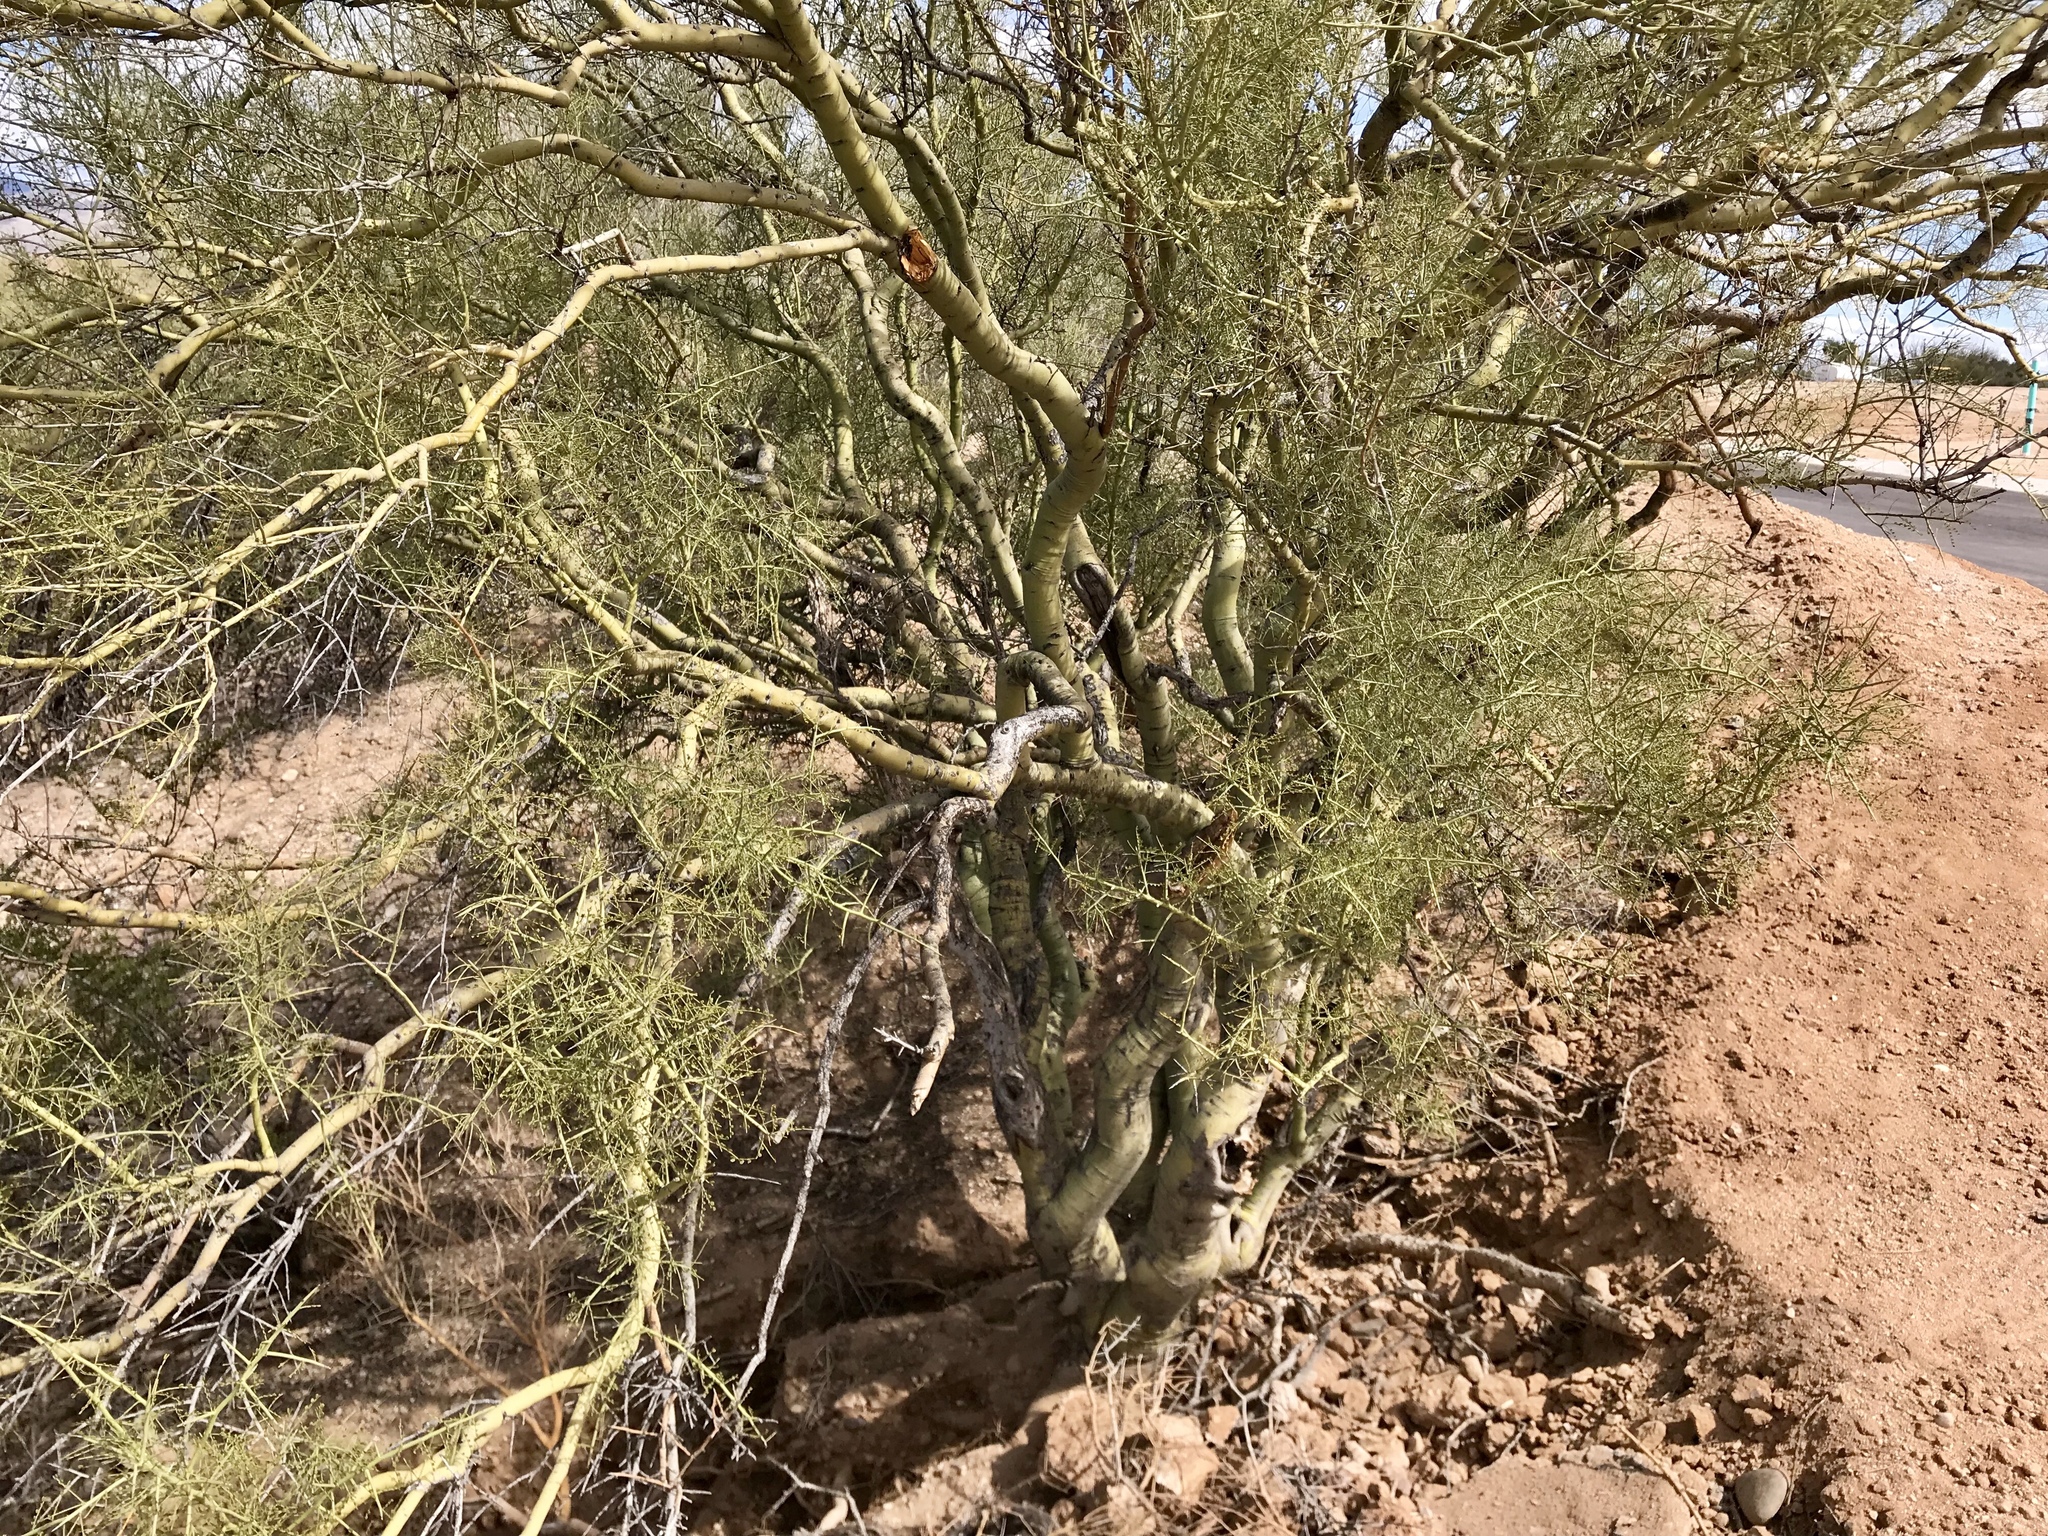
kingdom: Plantae
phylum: Tracheophyta
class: Magnoliopsida
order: Fabales
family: Fabaceae
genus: Parkinsonia
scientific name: Parkinsonia microphylla
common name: Yellow paloverde
